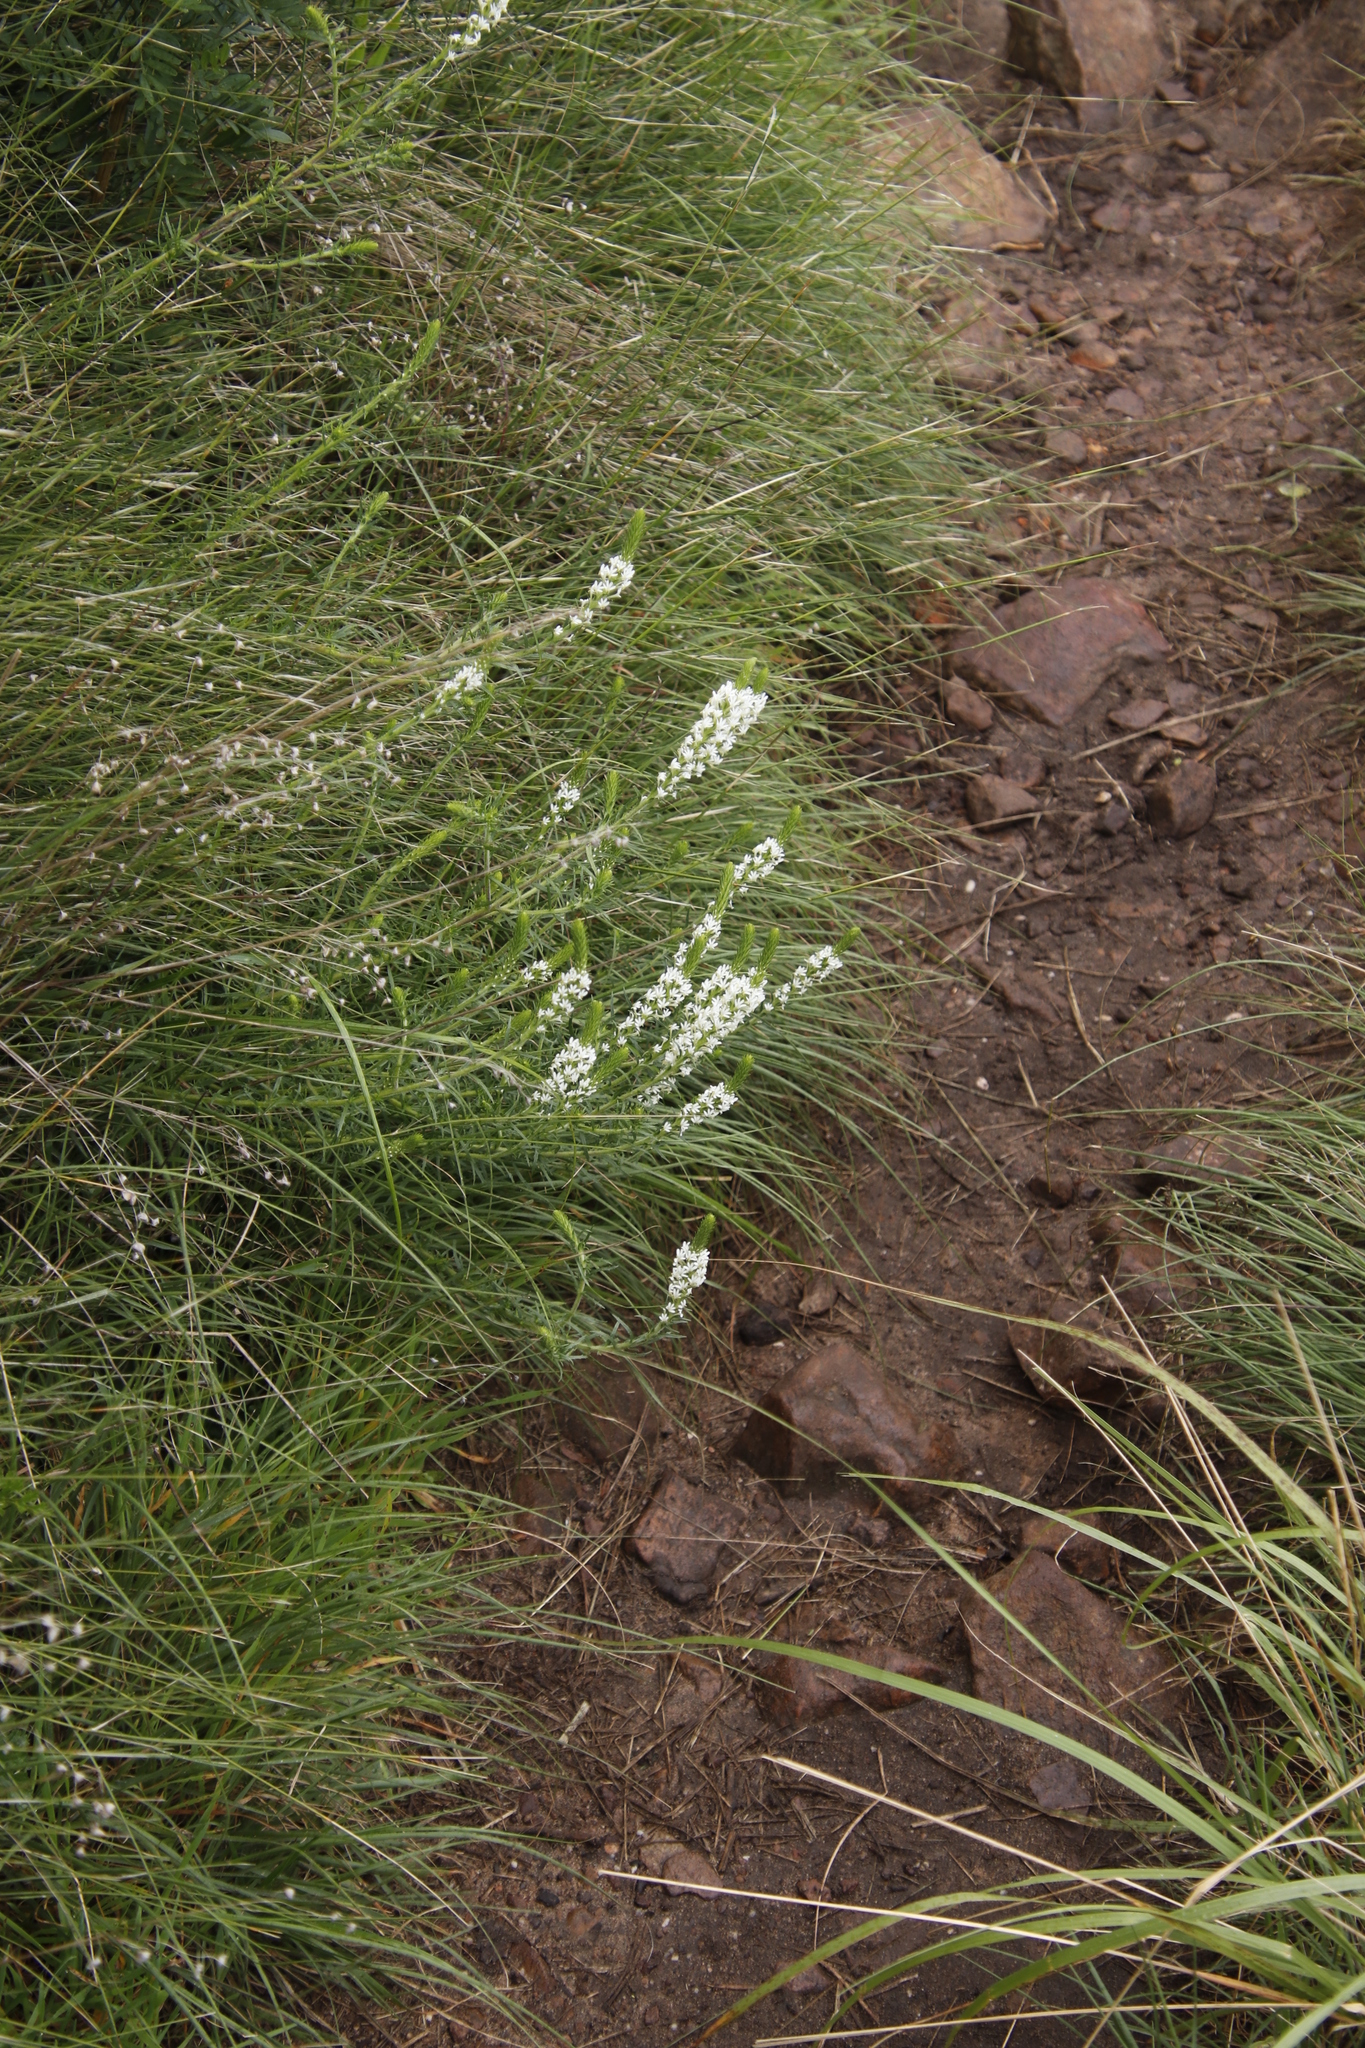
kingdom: Plantae
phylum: Tracheophyta
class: Magnoliopsida
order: Lamiales
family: Scrophulariaceae
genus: Dischisma
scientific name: Dischisma ciliatum
